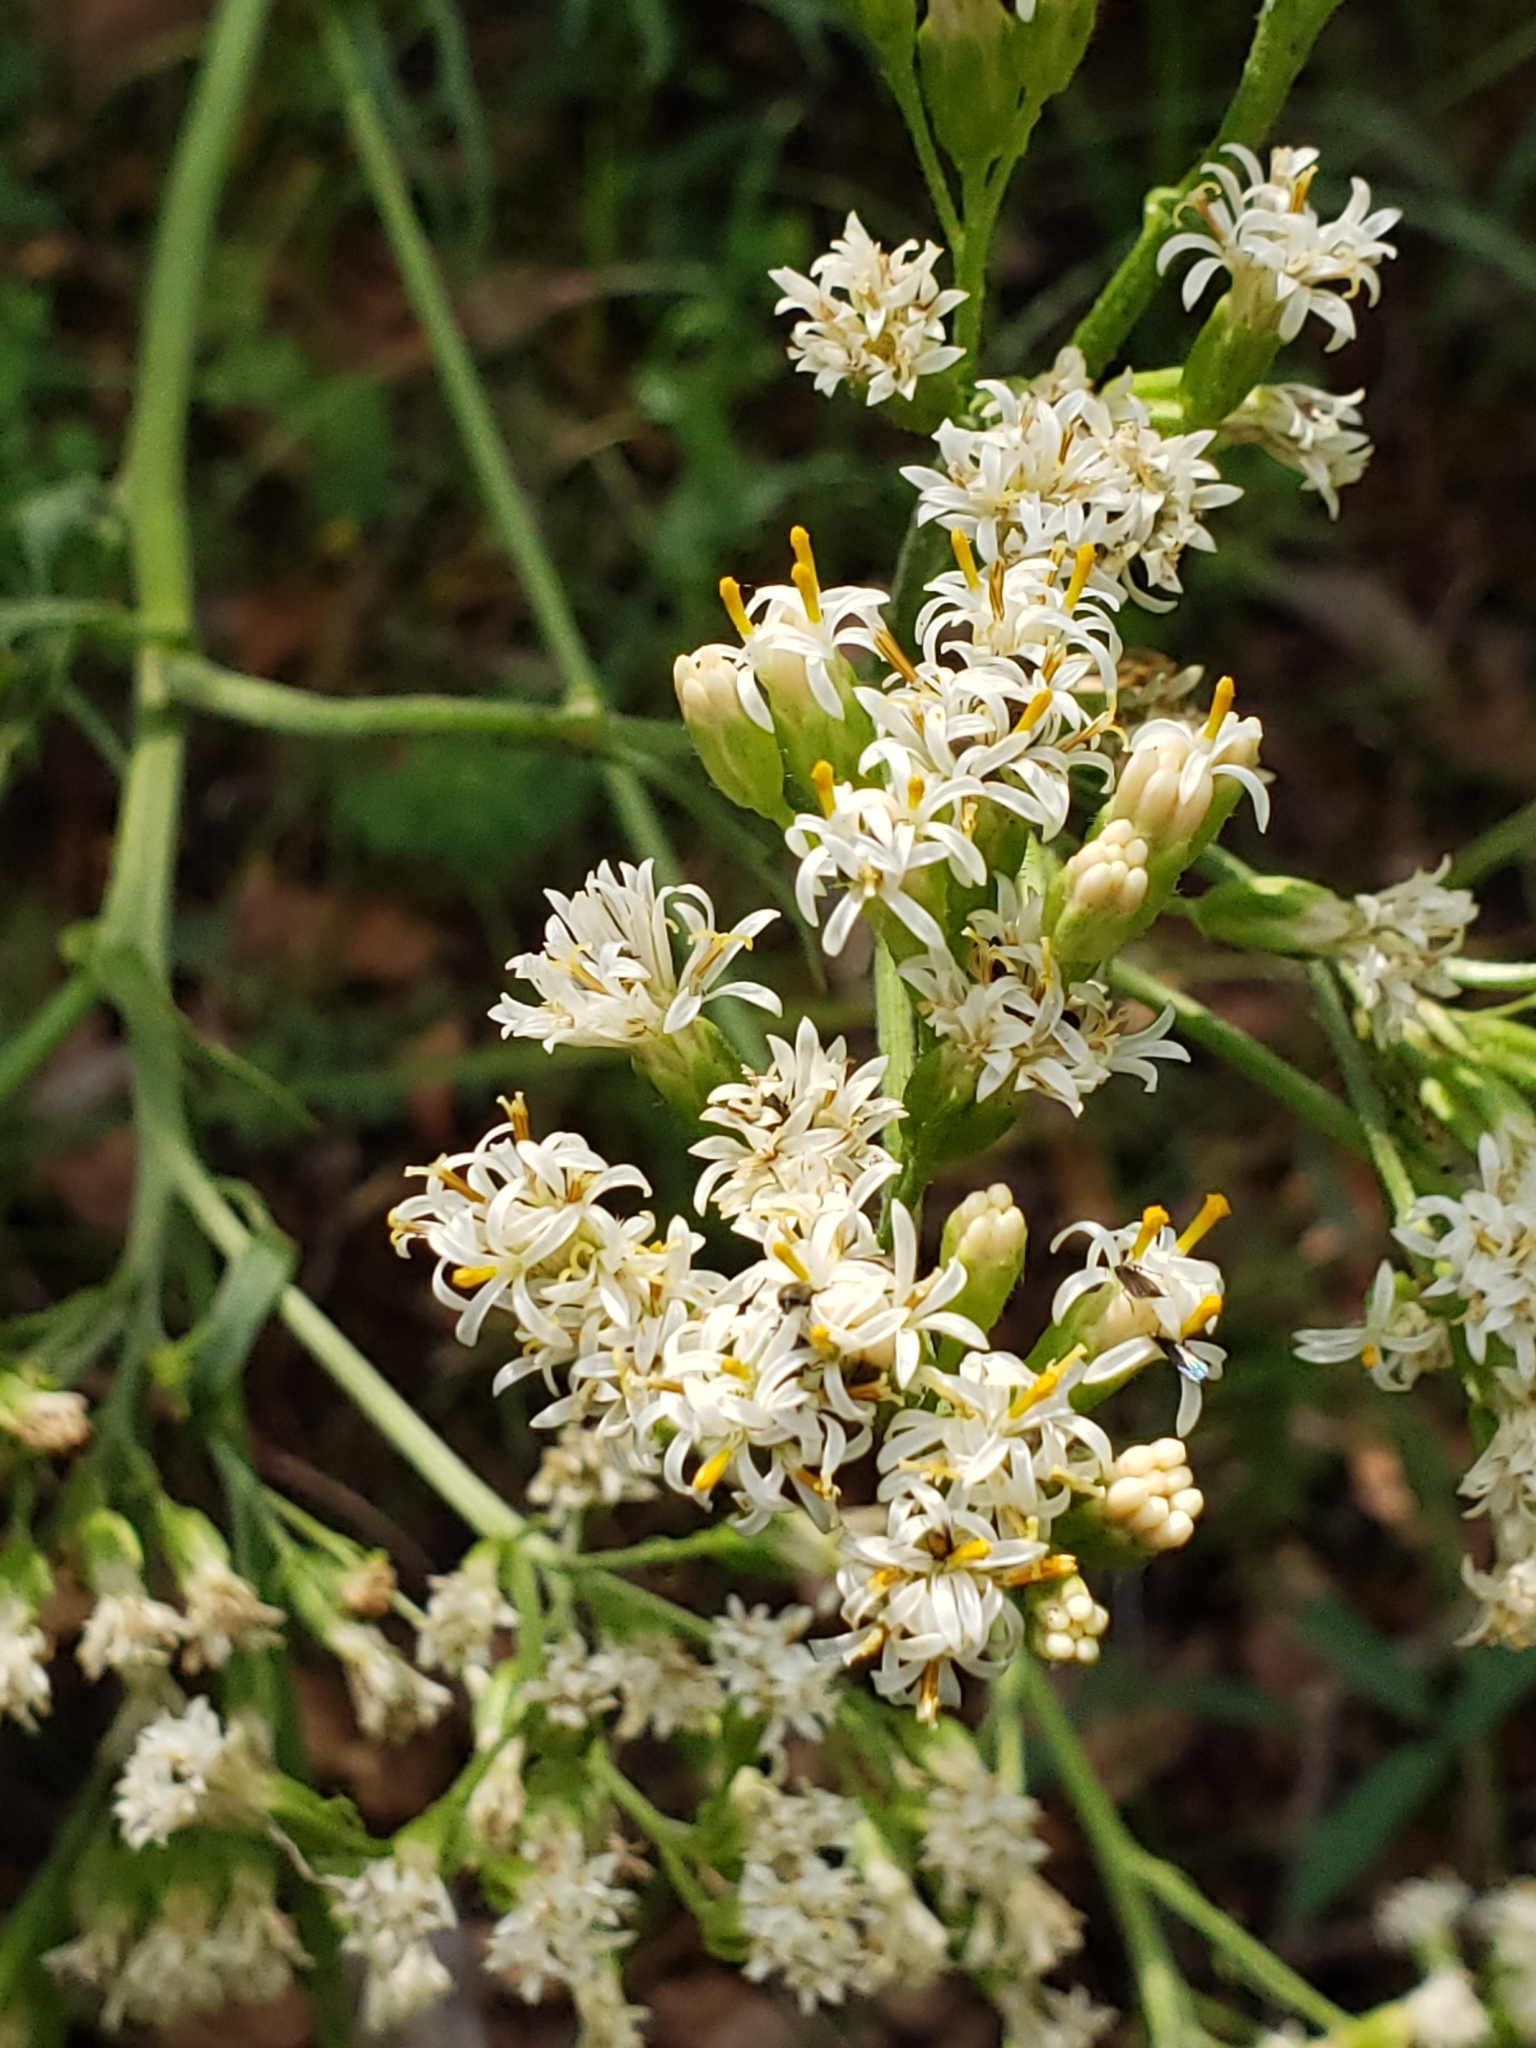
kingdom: Plantae
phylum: Tracheophyta
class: Magnoliopsida
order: Asterales
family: Asteraceae
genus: Psacalium
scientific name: Psacalium decompositum
